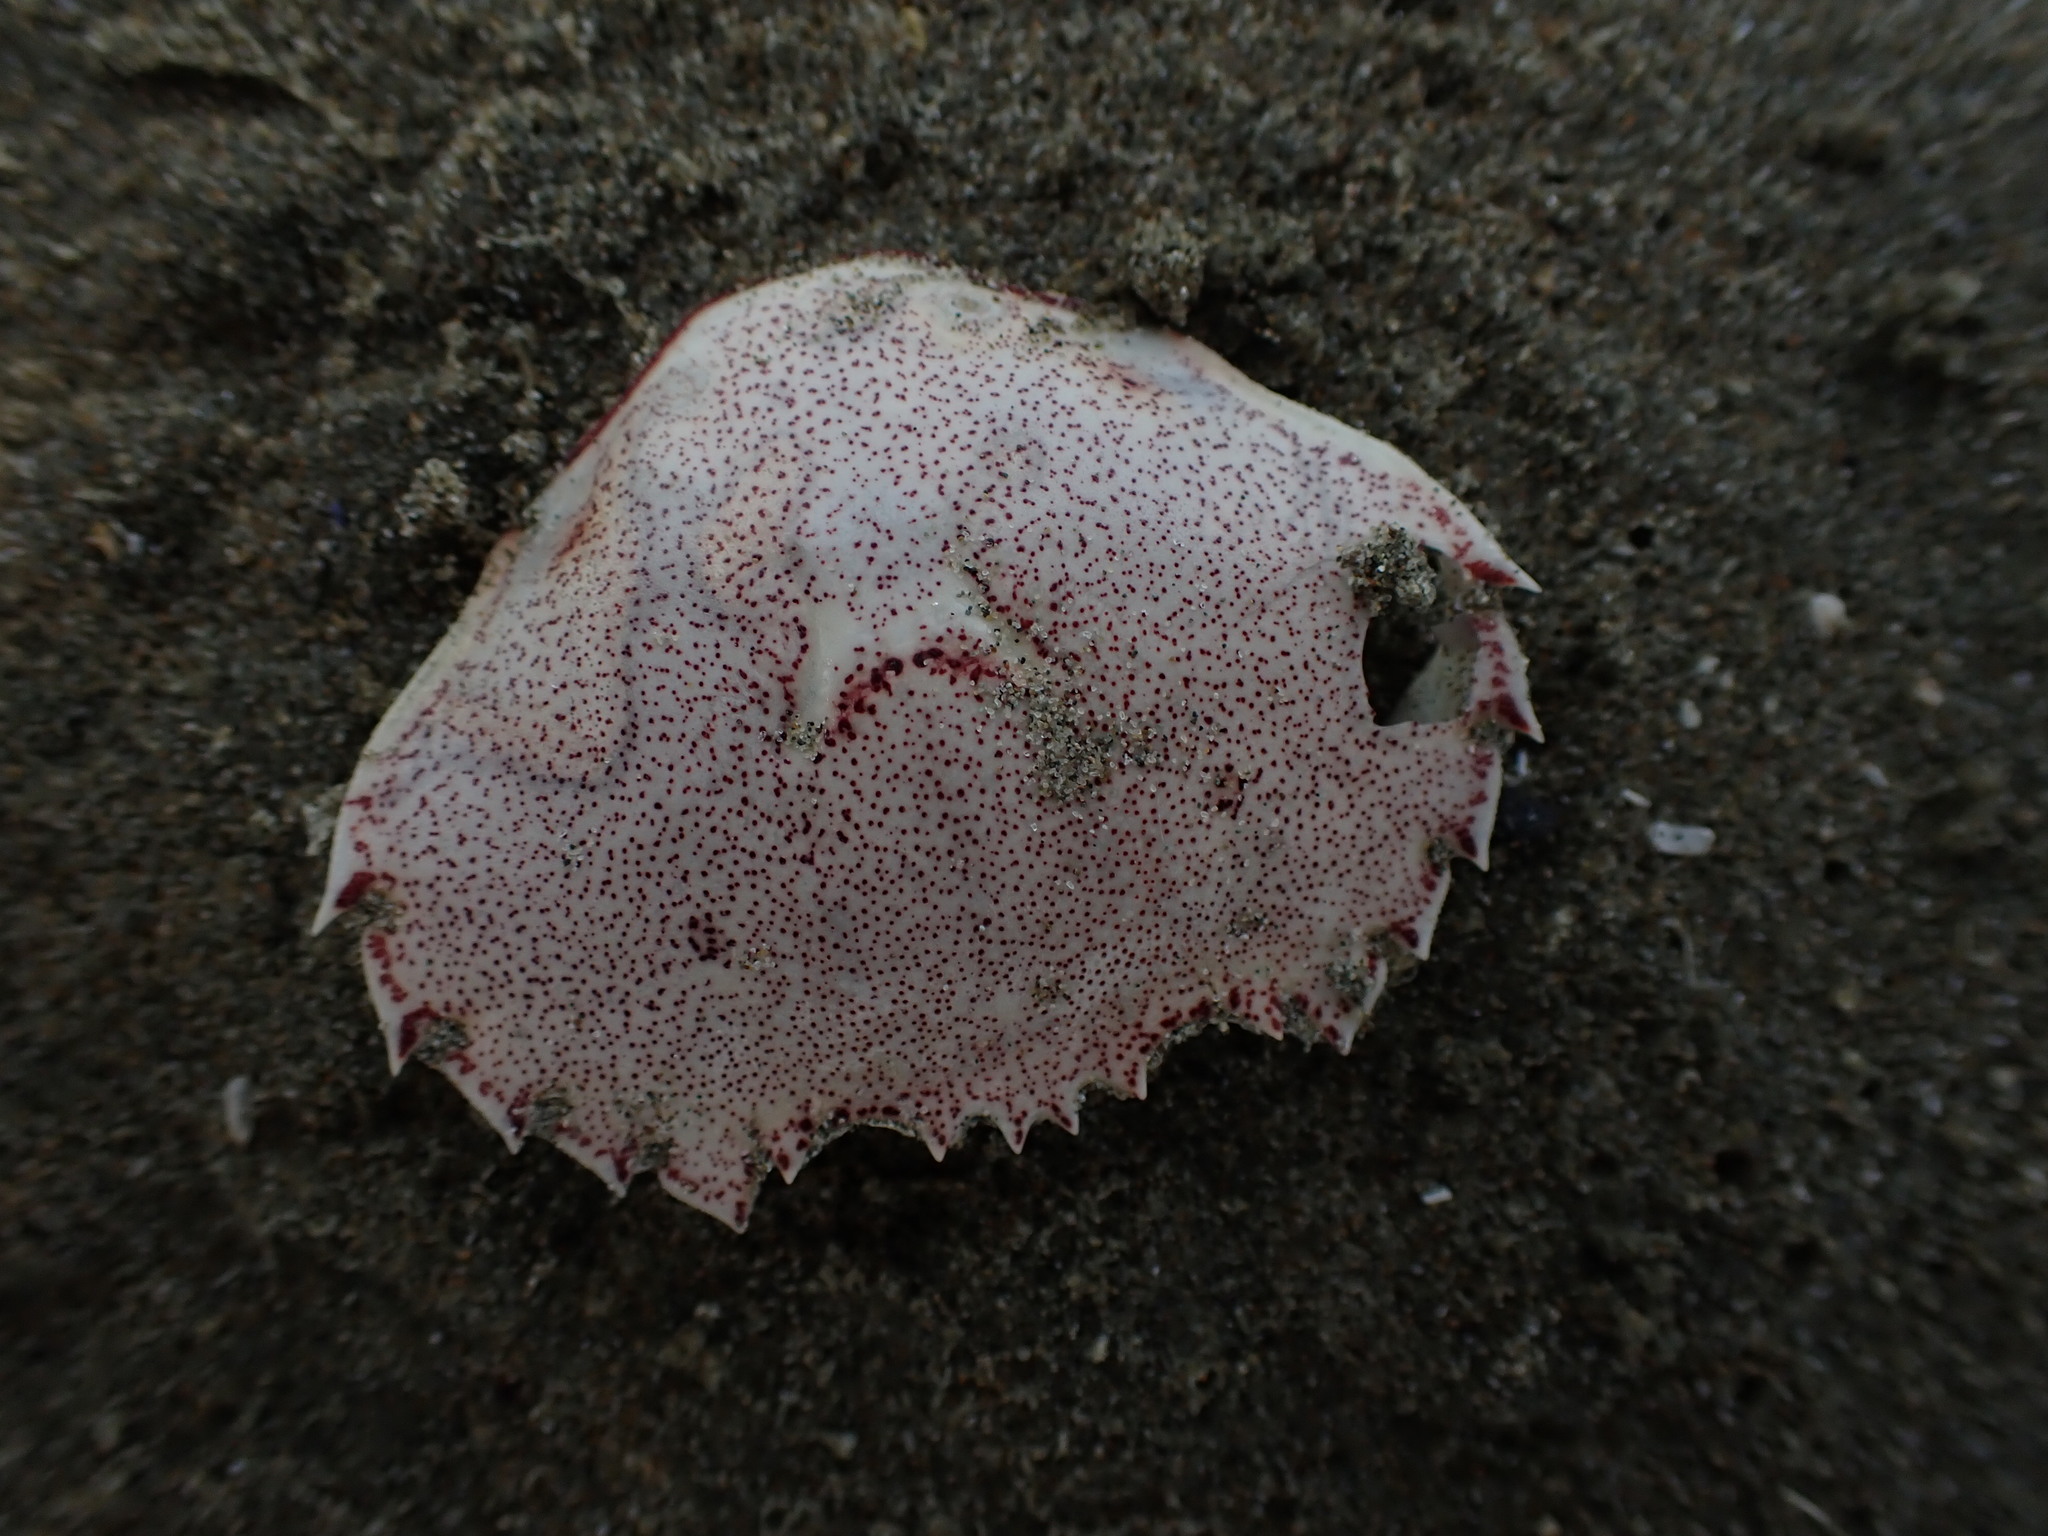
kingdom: Animalia
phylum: Arthropoda
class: Malacostraca
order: Decapoda
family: Ovalipidae
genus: Ovalipes
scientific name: Ovalipes catharus
